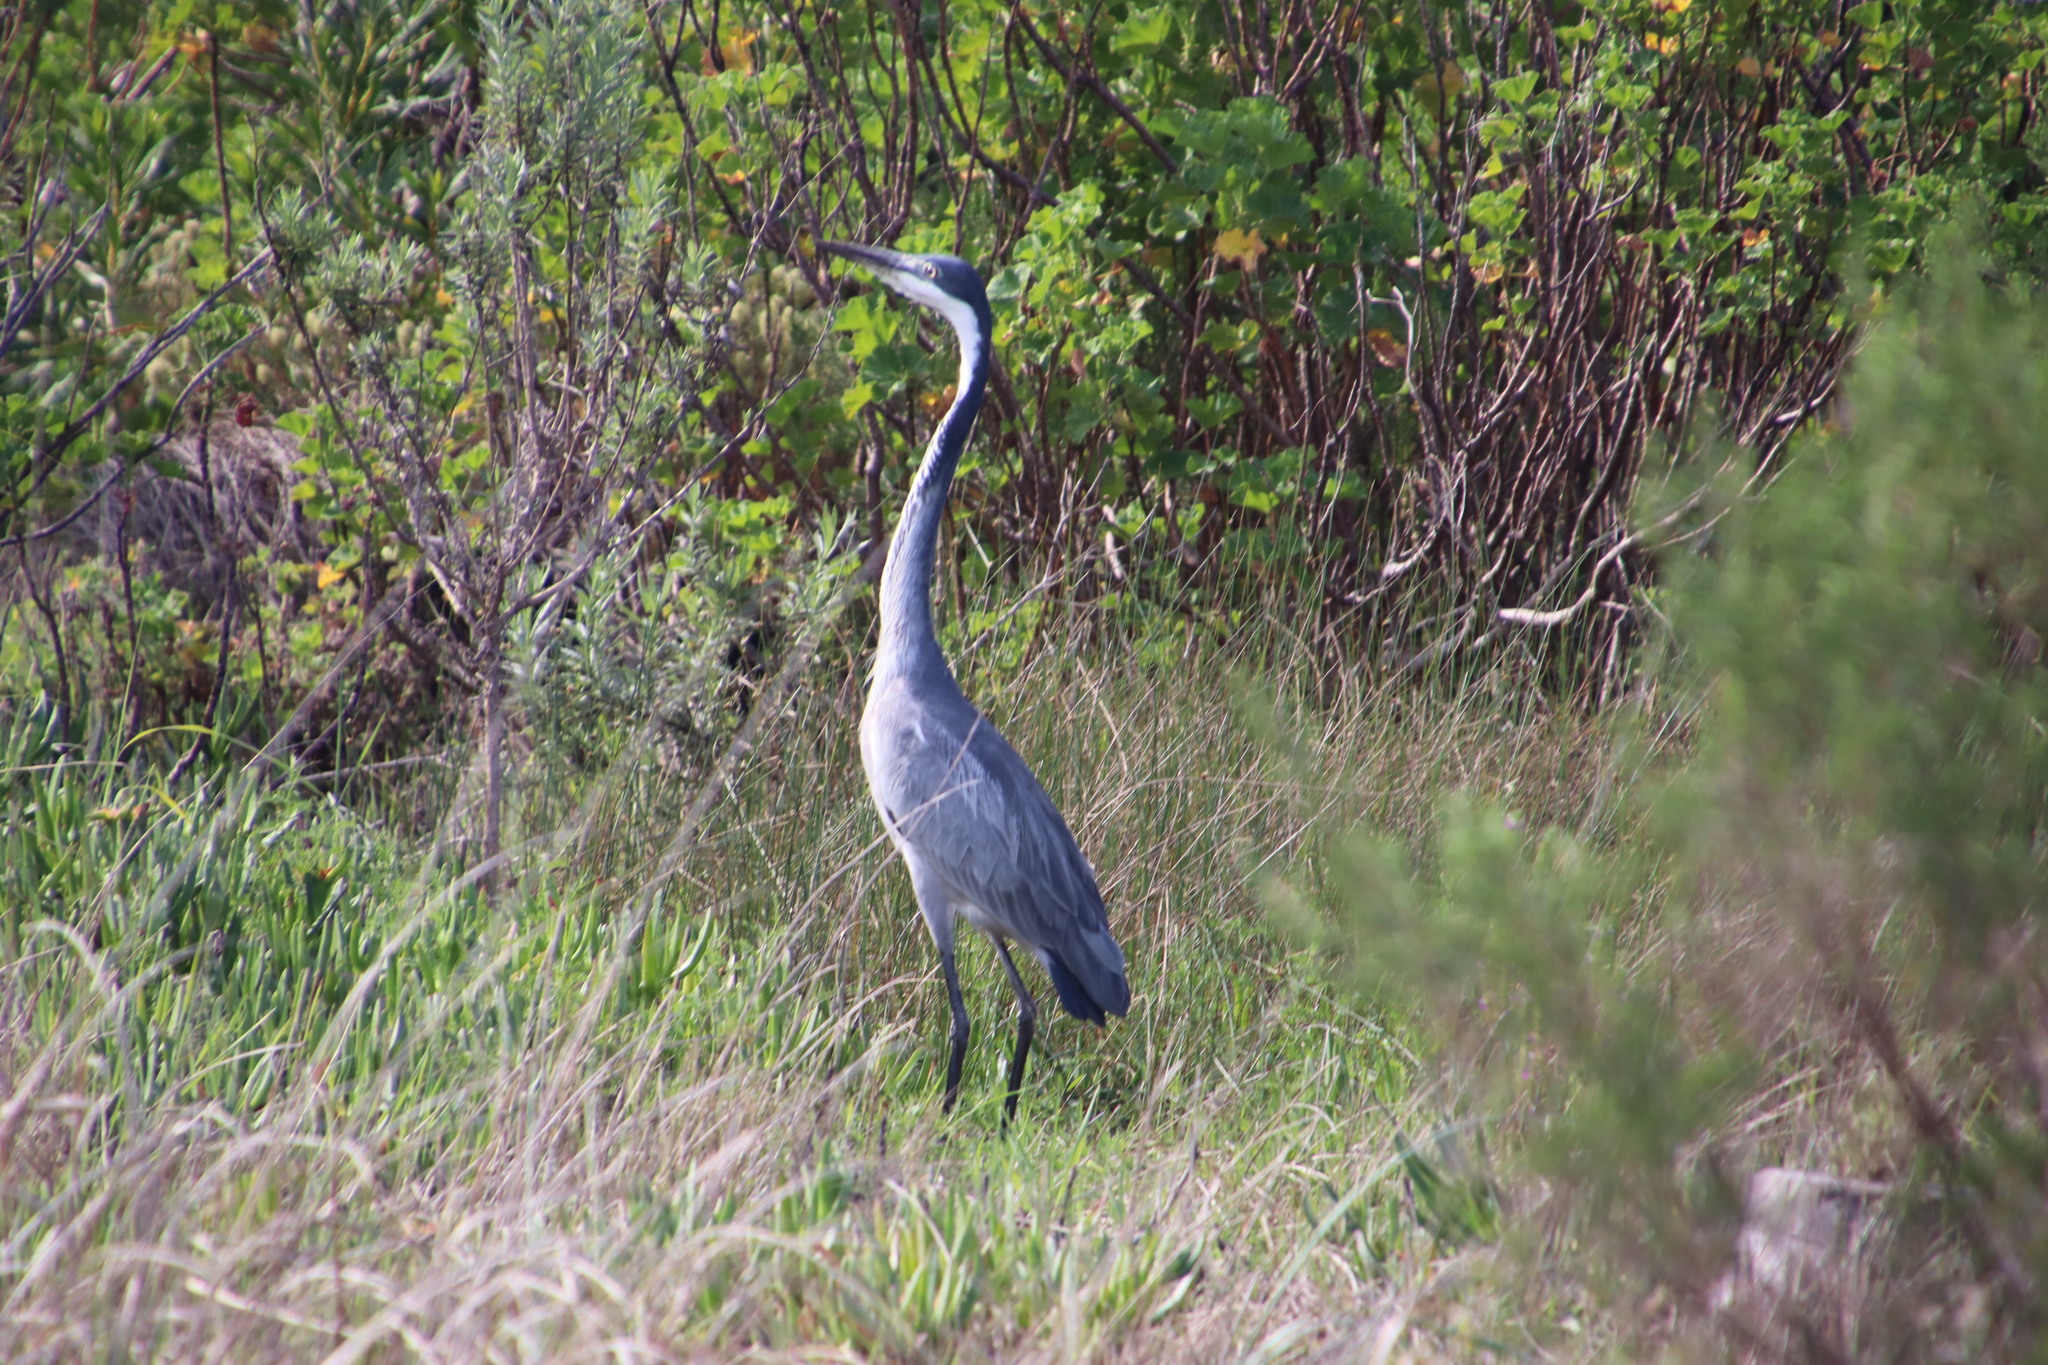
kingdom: Animalia
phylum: Chordata
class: Aves
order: Pelecaniformes
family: Ardeidae
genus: Ardea
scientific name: Ardea melanocephala
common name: Black-headed heron
